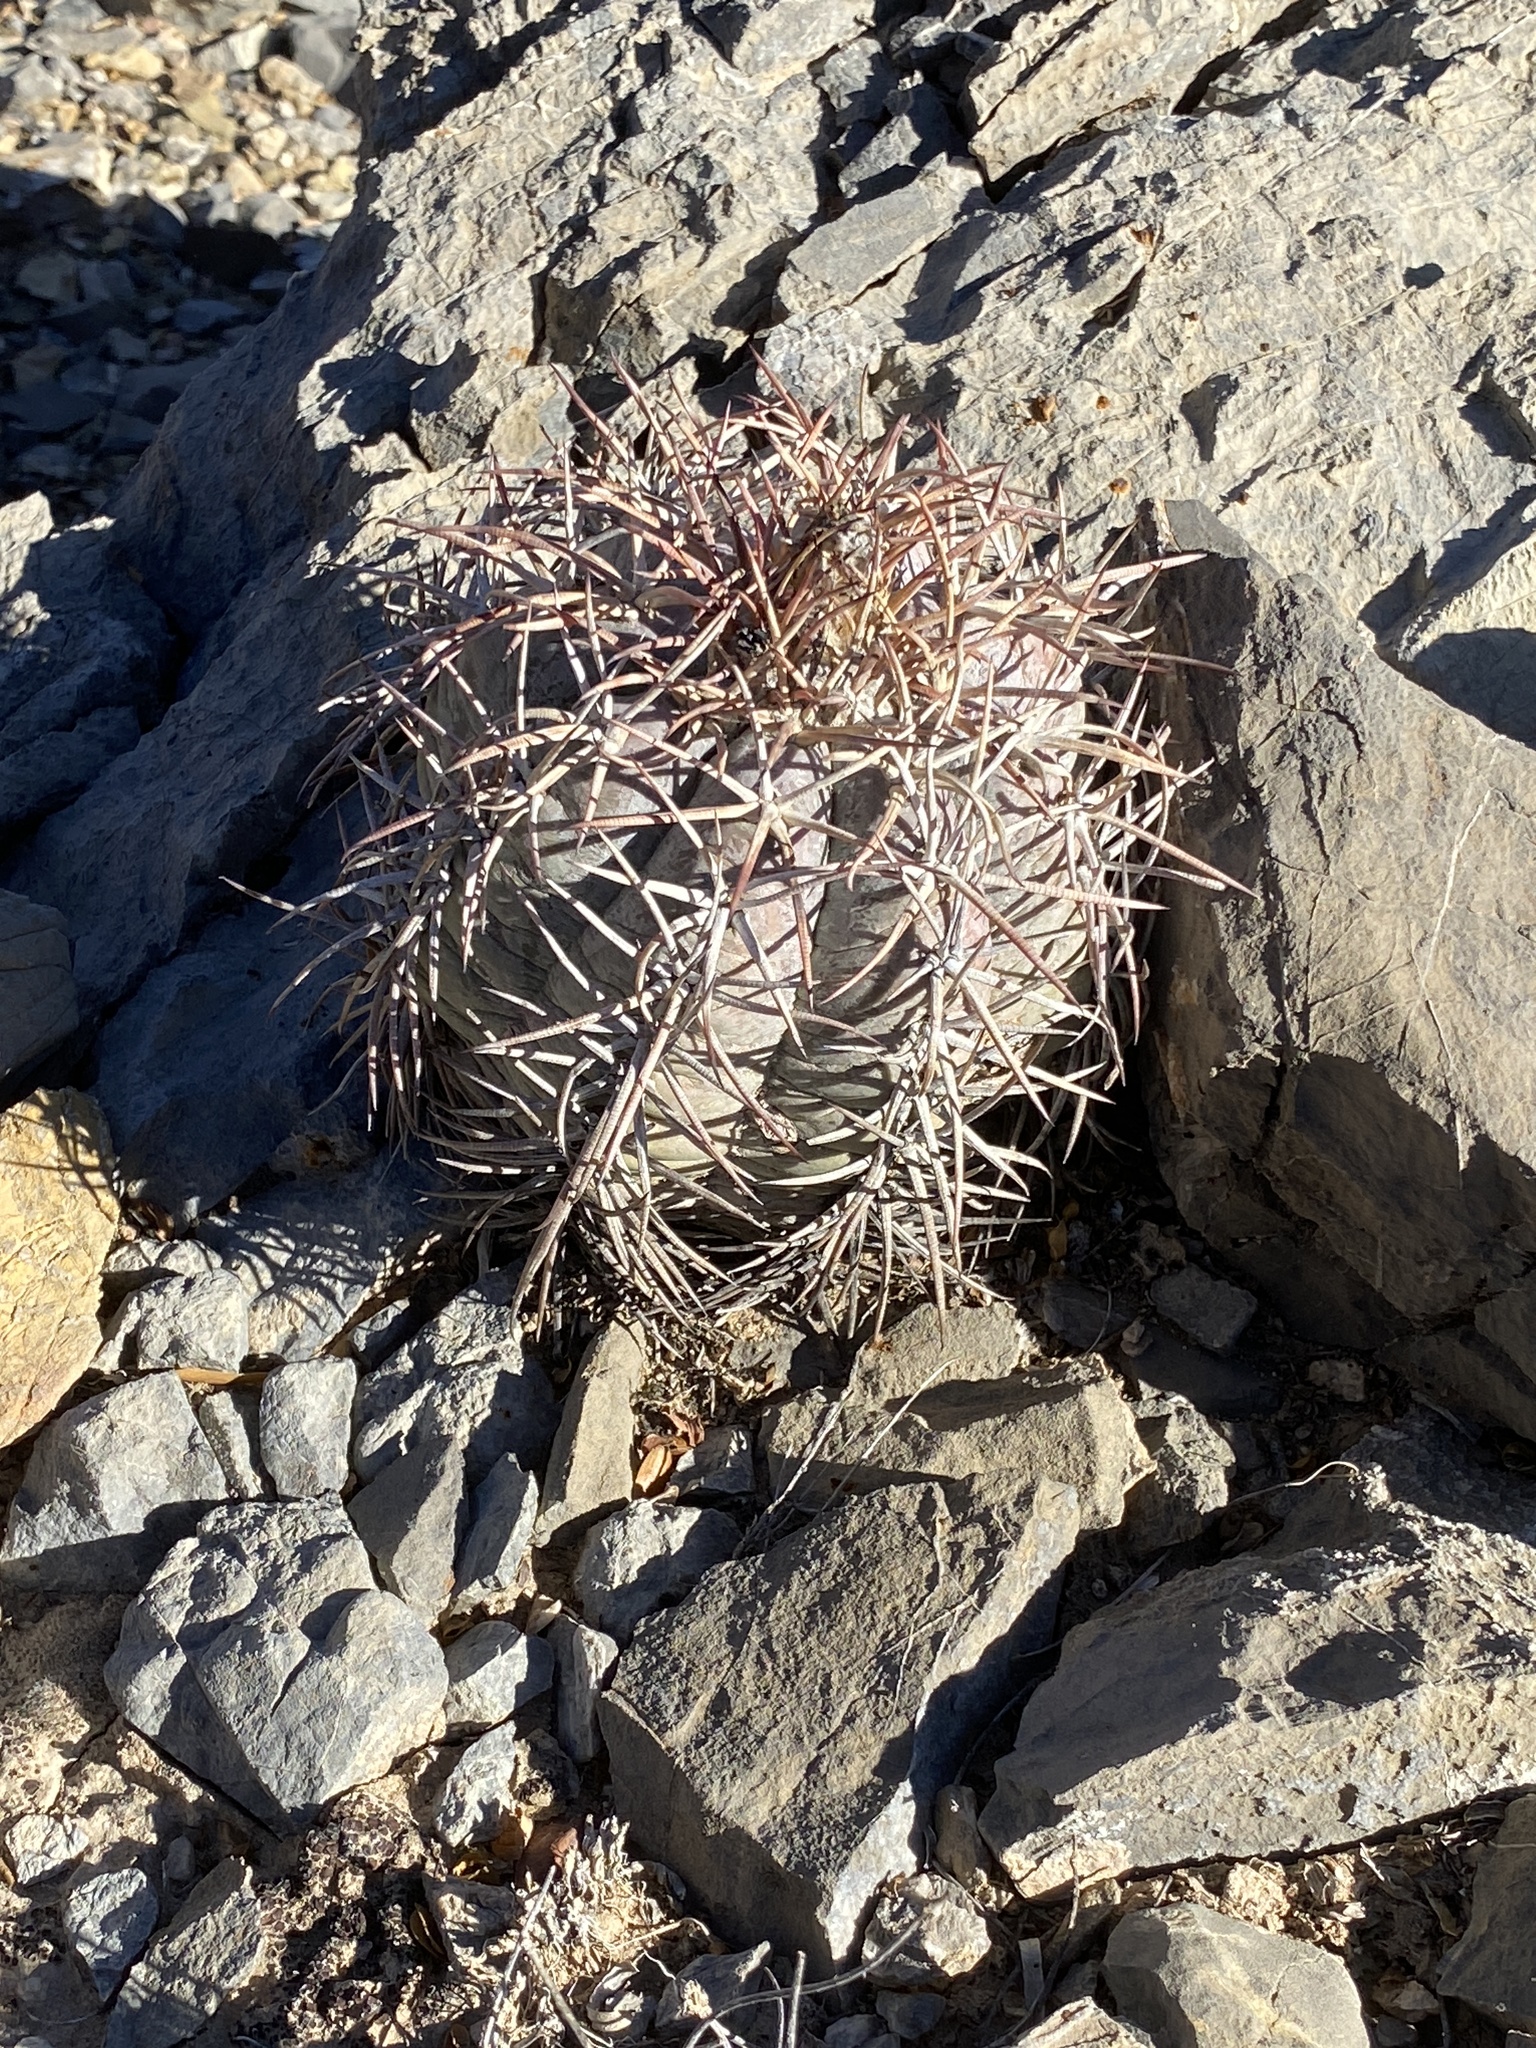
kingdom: Plantae
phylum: Tracheophyta
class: Magnoliopsida
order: Caryophyllales
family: Cactaceae
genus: Echinocactus
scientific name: Echinocactus horizonthalonius
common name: Devilshead
